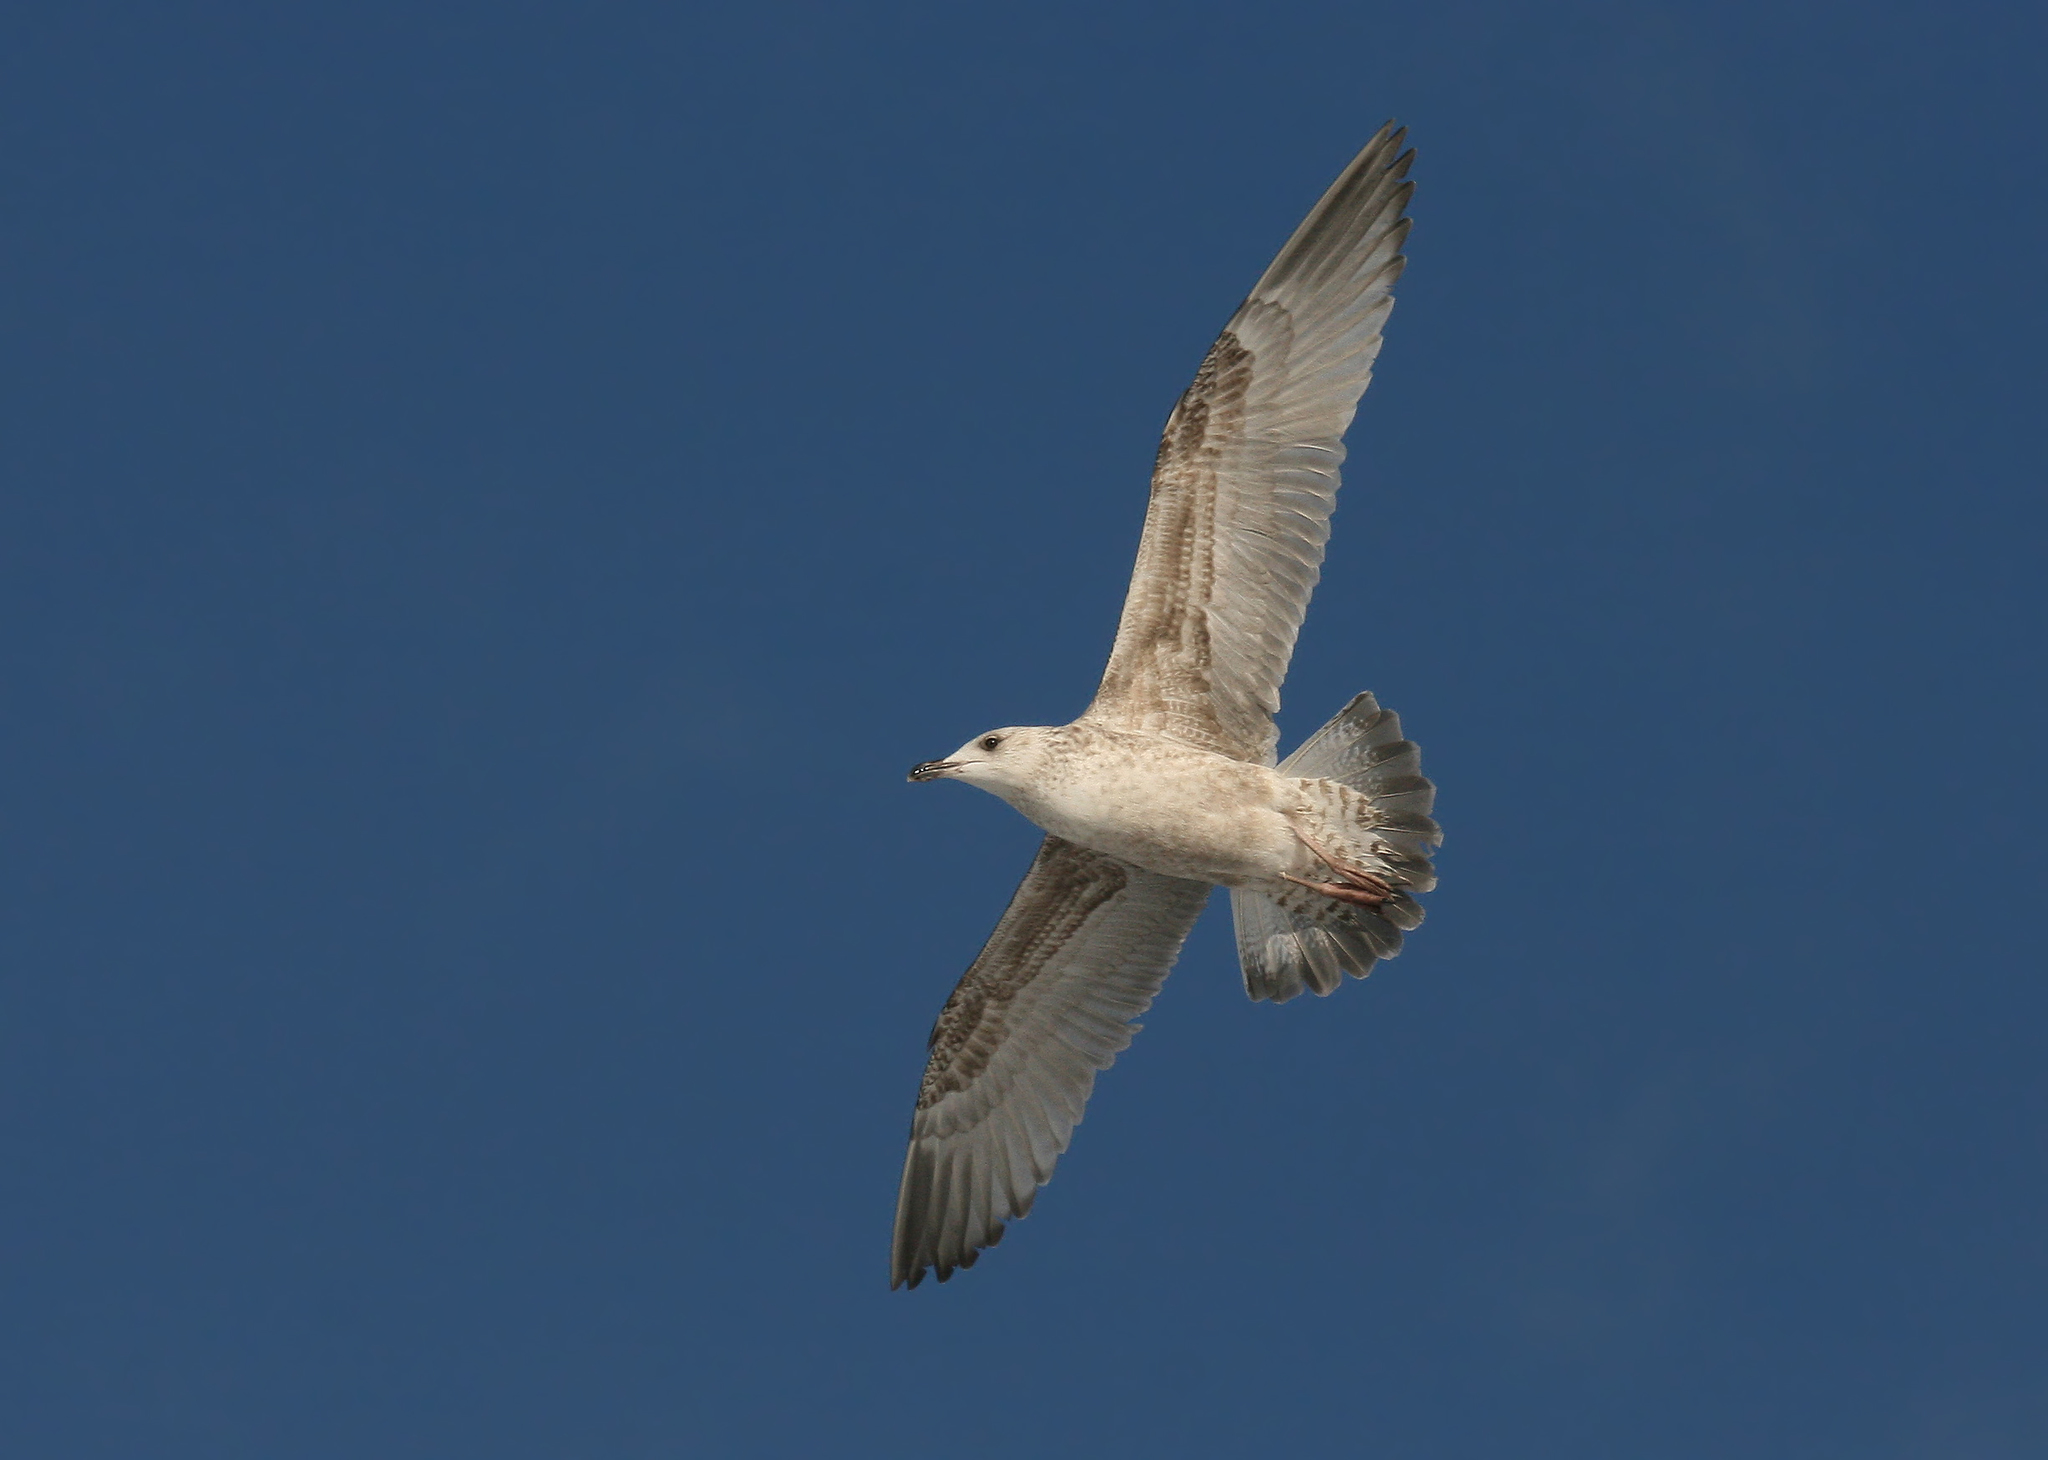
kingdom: Animalia
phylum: Chordata
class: Aves
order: Charadriiformes
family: Laridae
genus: Larus
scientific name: Larus marinus
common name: Great black-backed gull
